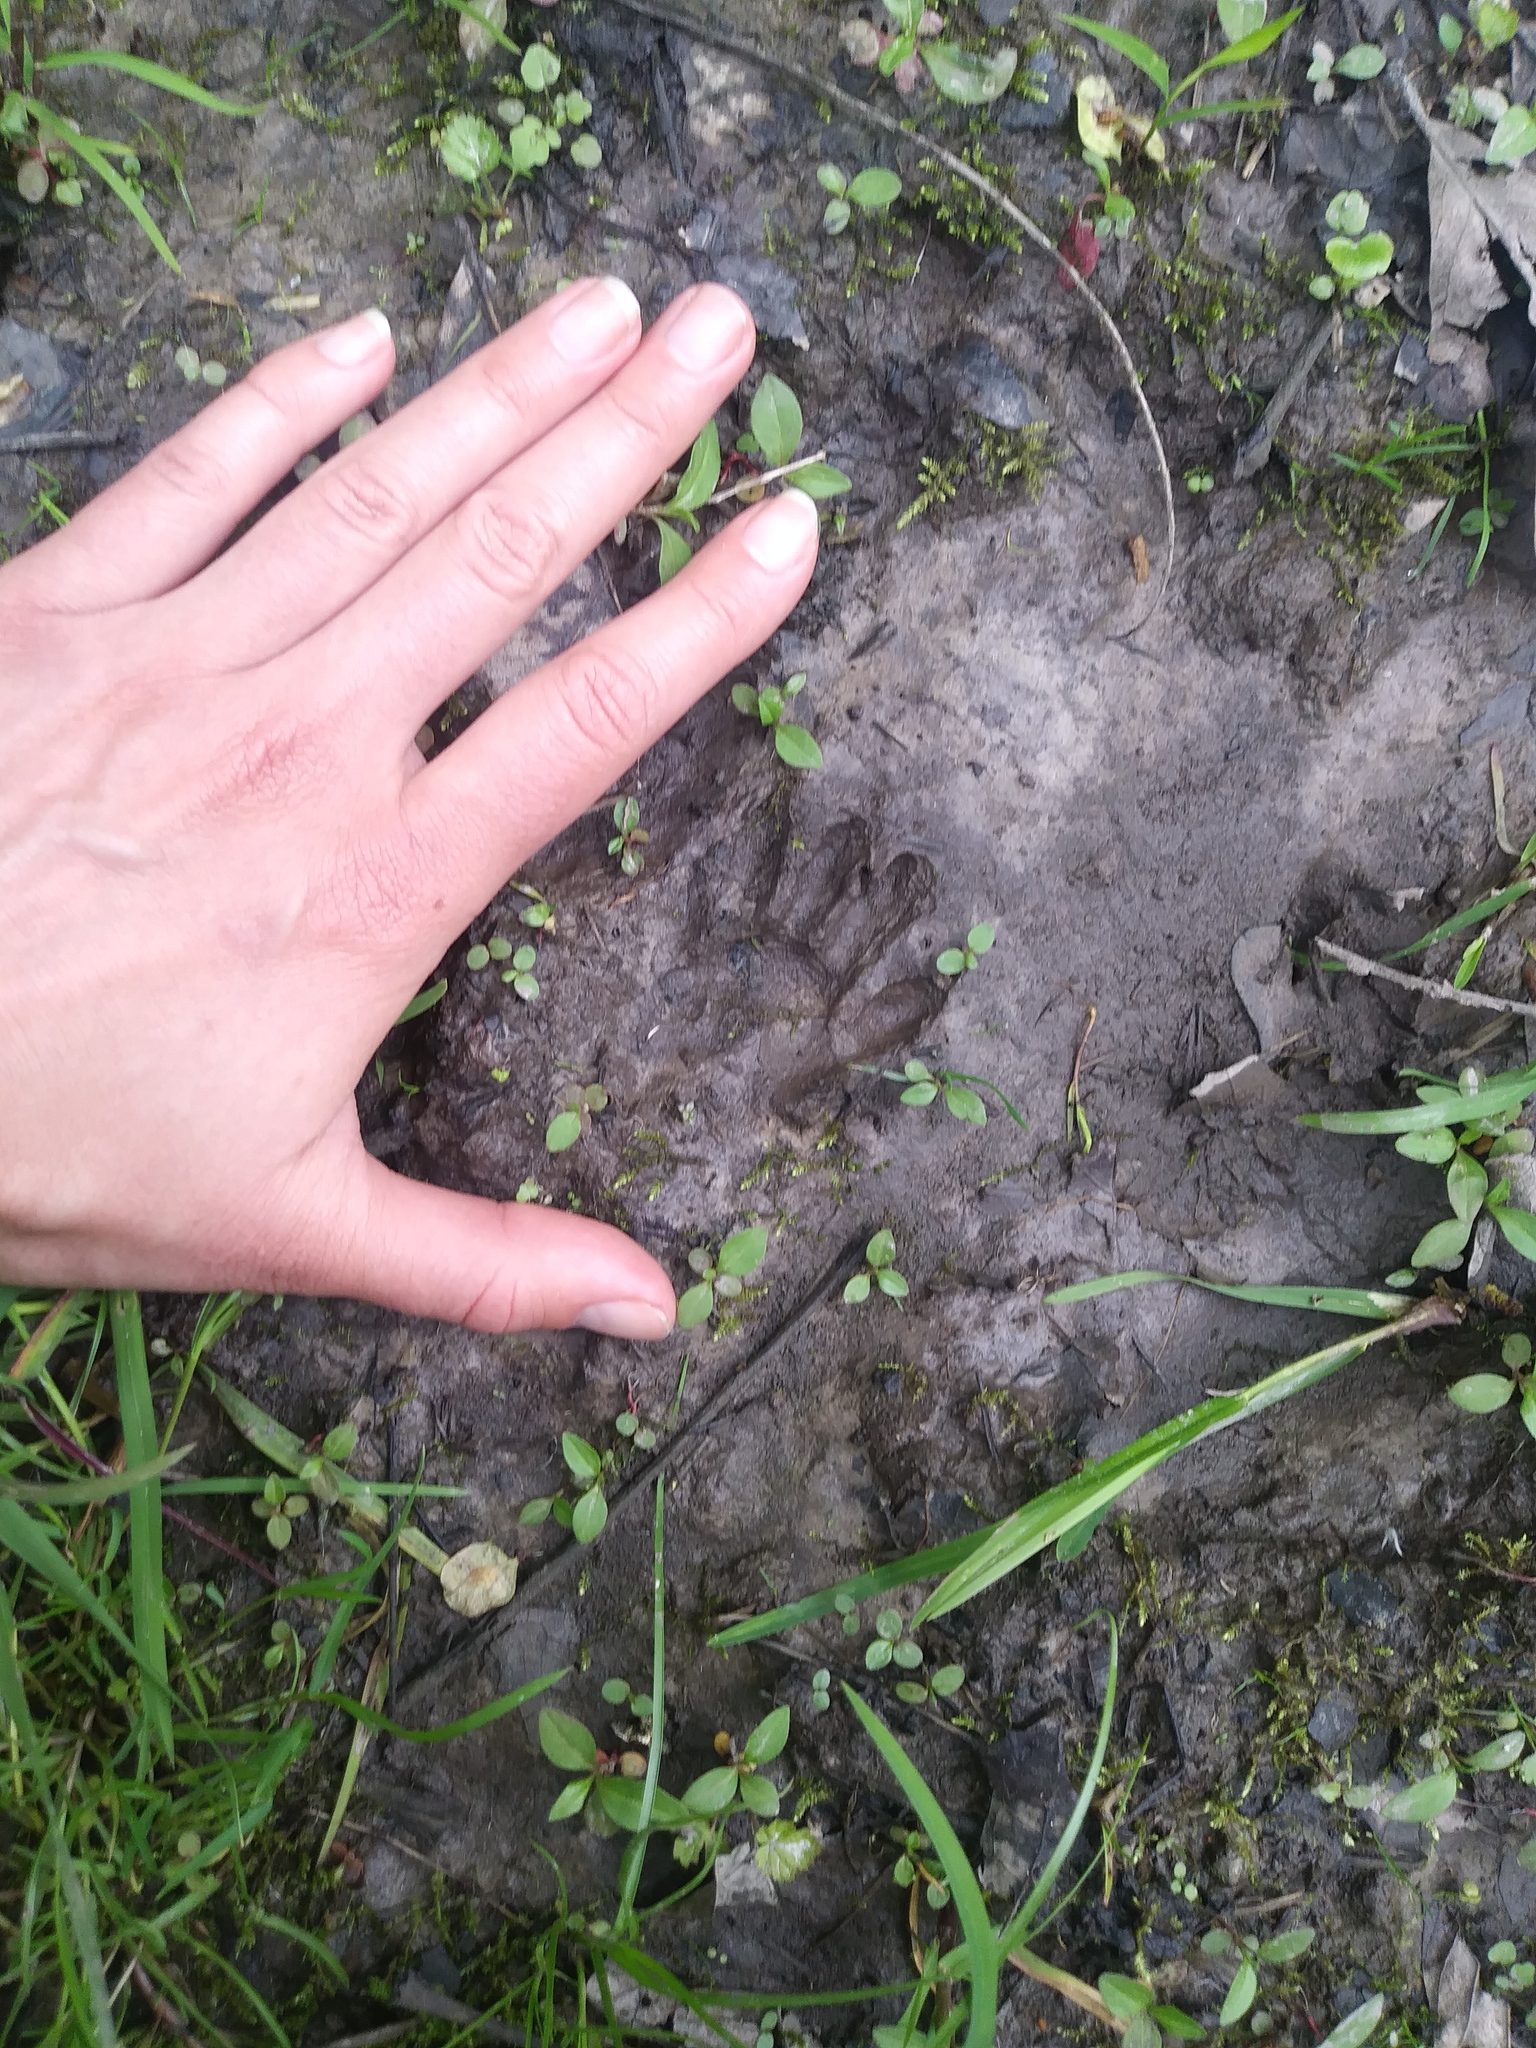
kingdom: Animalia
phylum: Chordata
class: Mammalia
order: Carnivora
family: Procyonidae
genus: Procyon
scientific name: Procyon lotor
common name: Raccoon
